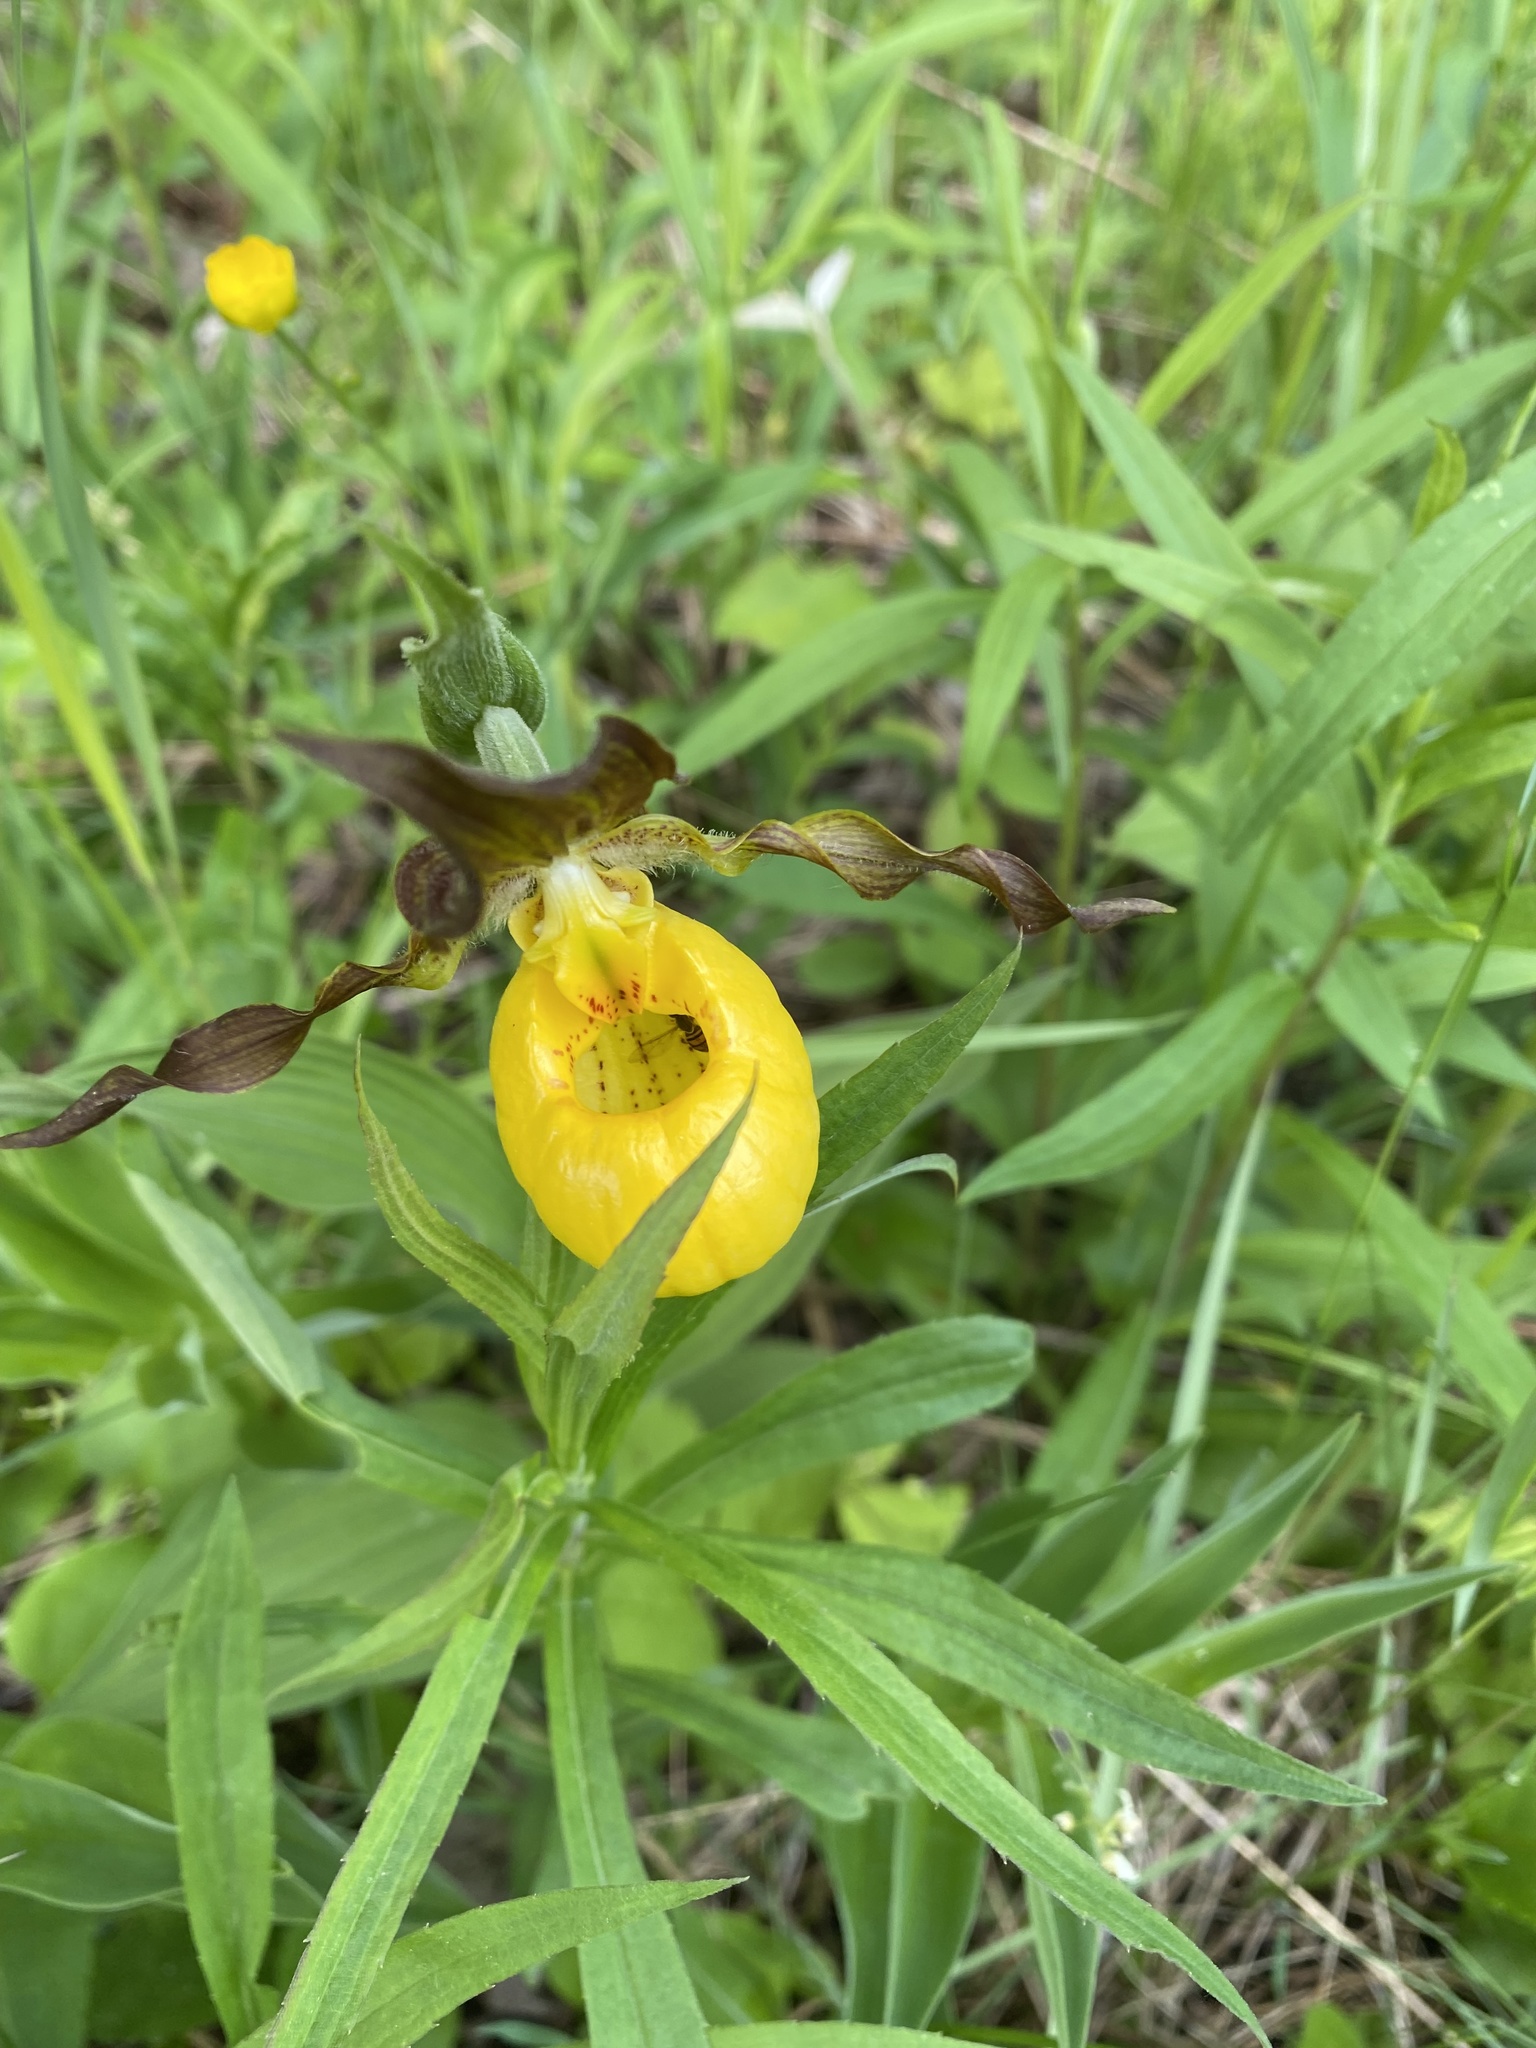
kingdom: Plantae
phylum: Tracheophyta
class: Liliopsida
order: Asparagales
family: Orchidaceae
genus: Cypripedium
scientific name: Cypripedium parviflorum
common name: American yellow lady's-slipper
